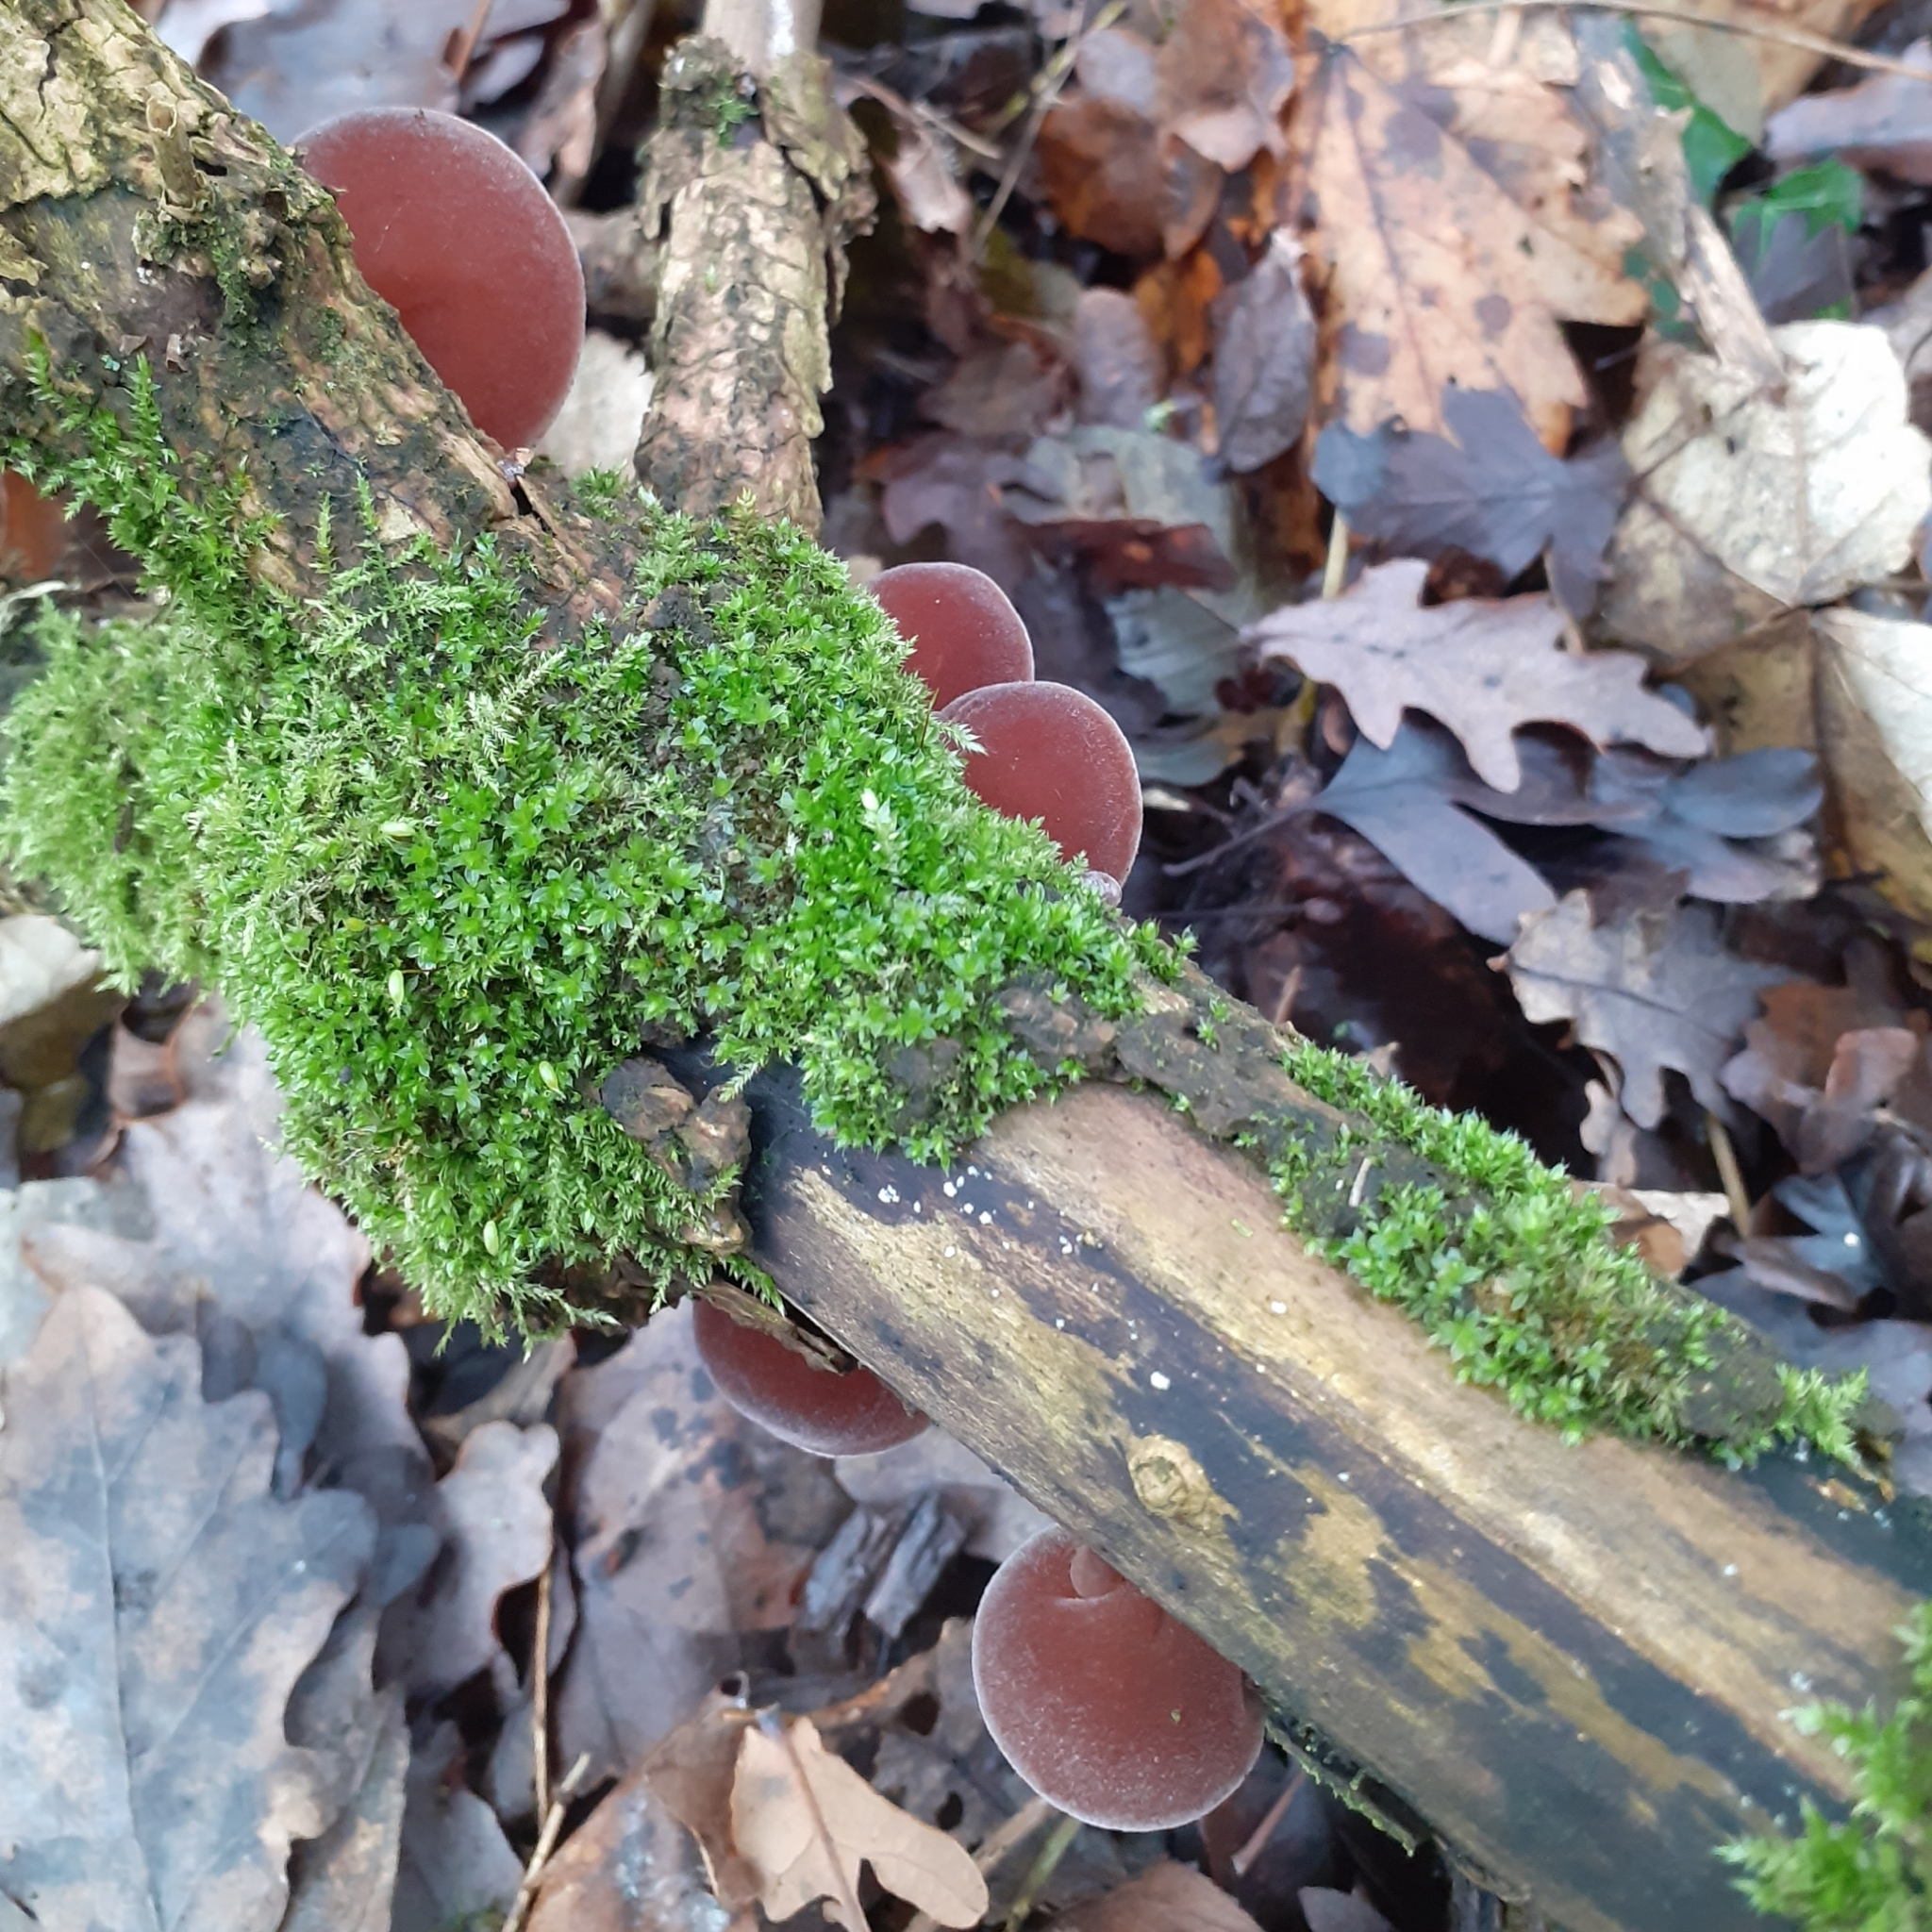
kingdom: Fungi
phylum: Basidiomycota
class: Agaricomycetes
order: Auriculariales
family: Auriculariaceae
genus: Auricularia
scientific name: Auricularia auricula-judae
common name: Jelly ear
